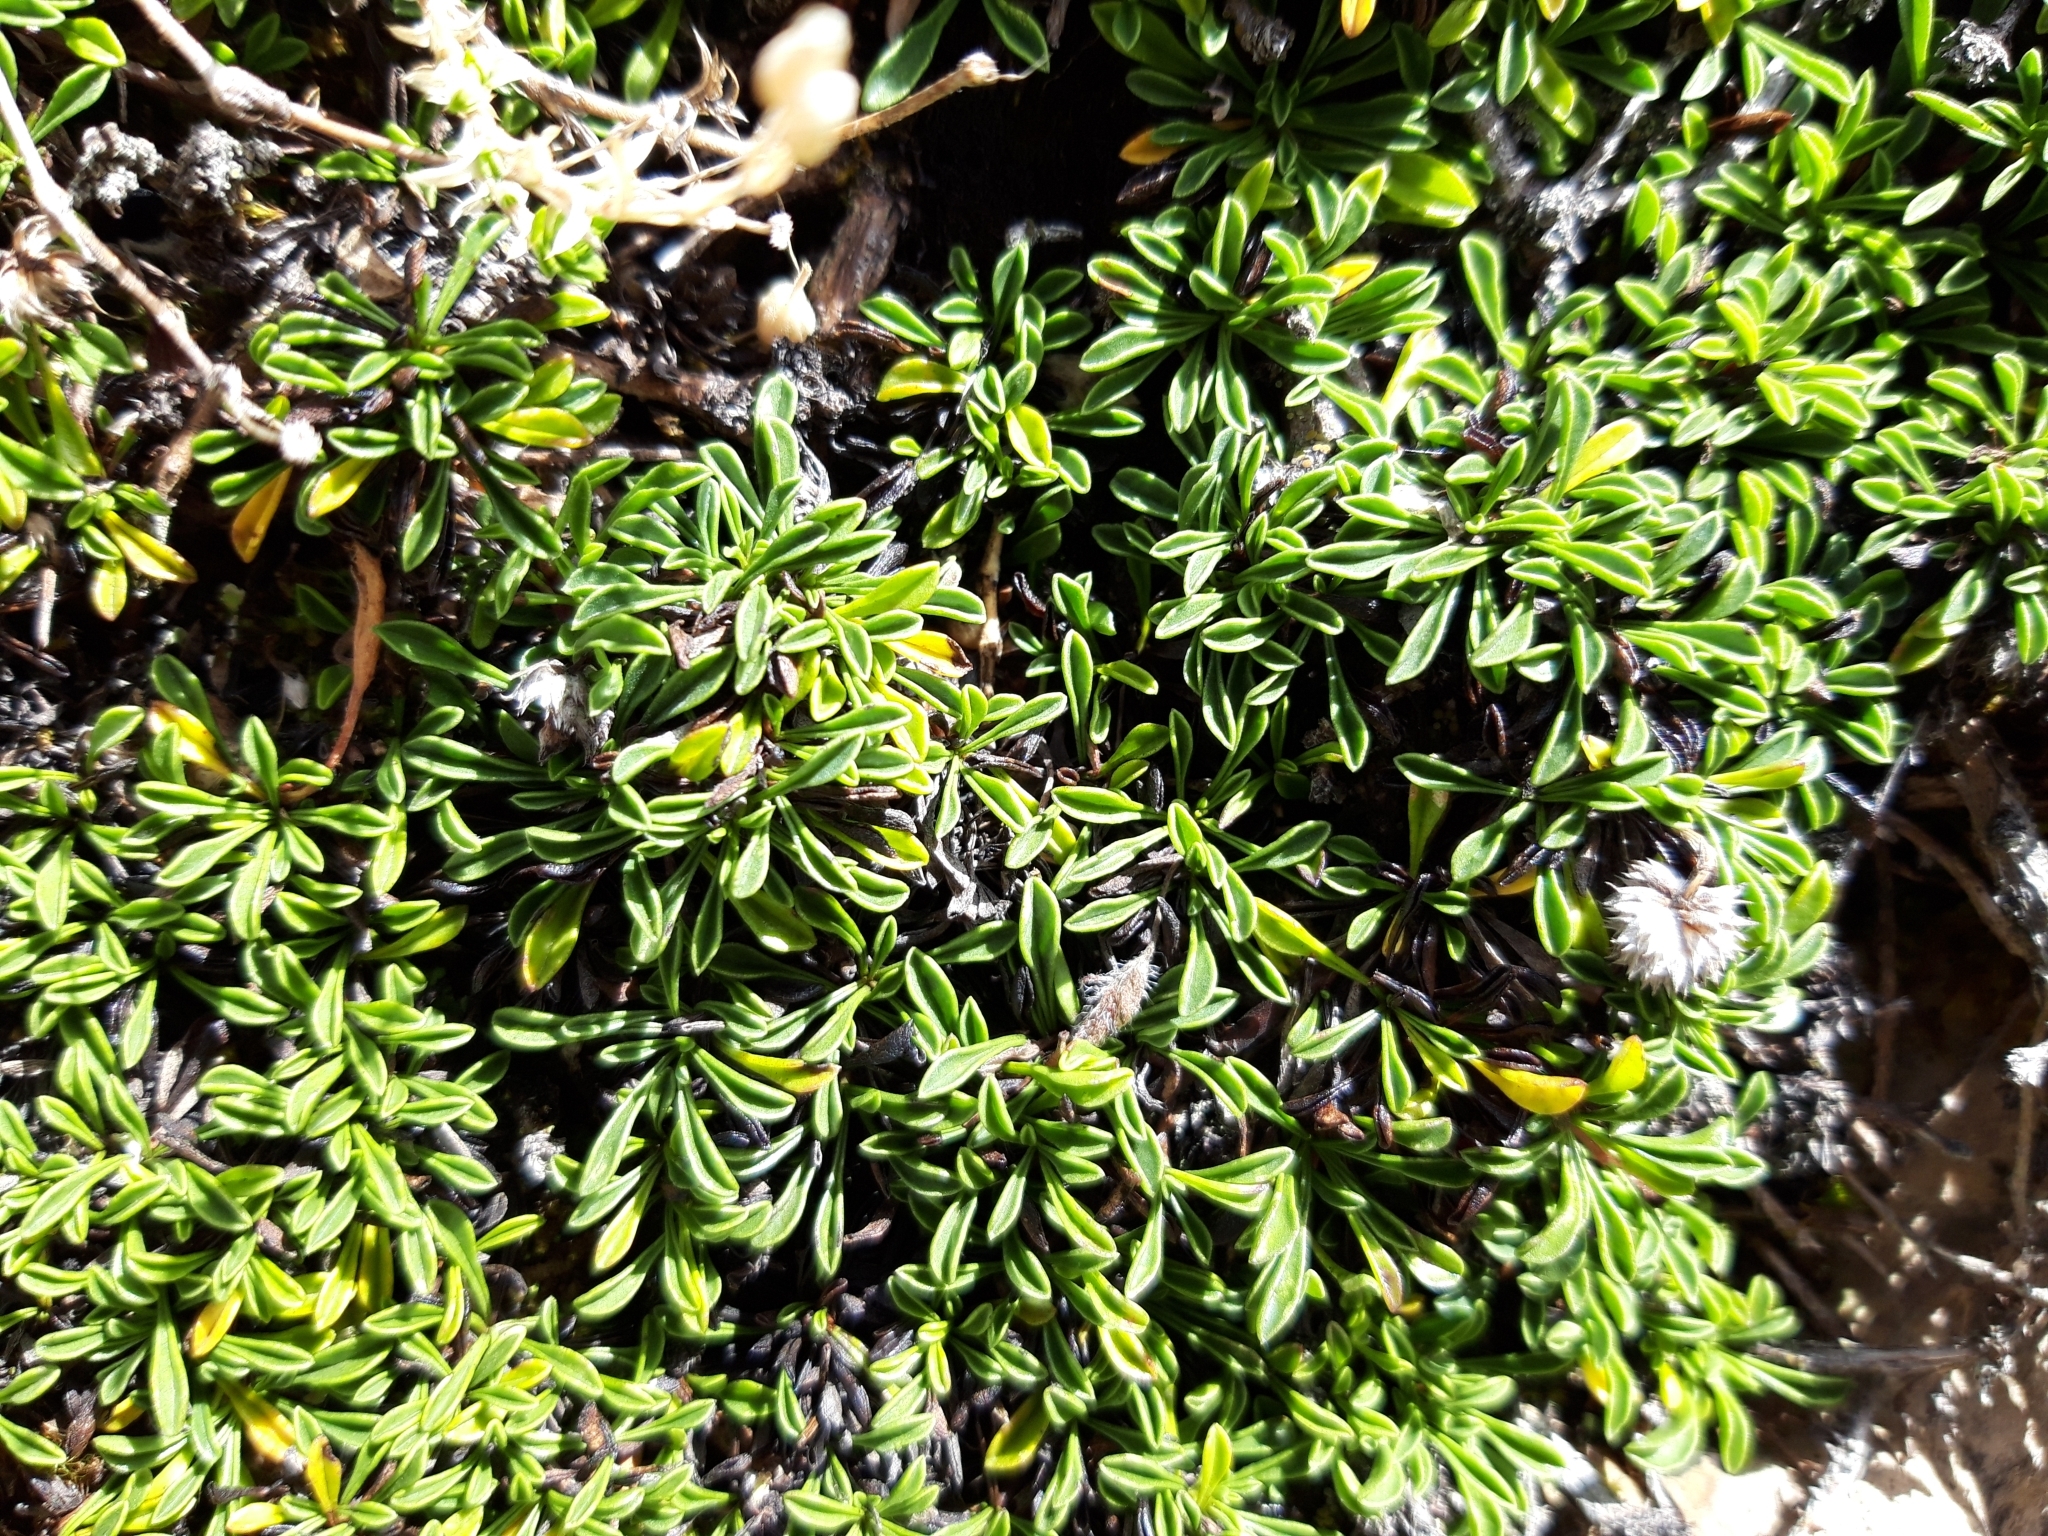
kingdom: Plantae
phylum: Tracheophyta
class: Magnoliopsida
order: Lamiales
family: Plantaginaceae
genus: Globularia
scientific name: Globularia repens
